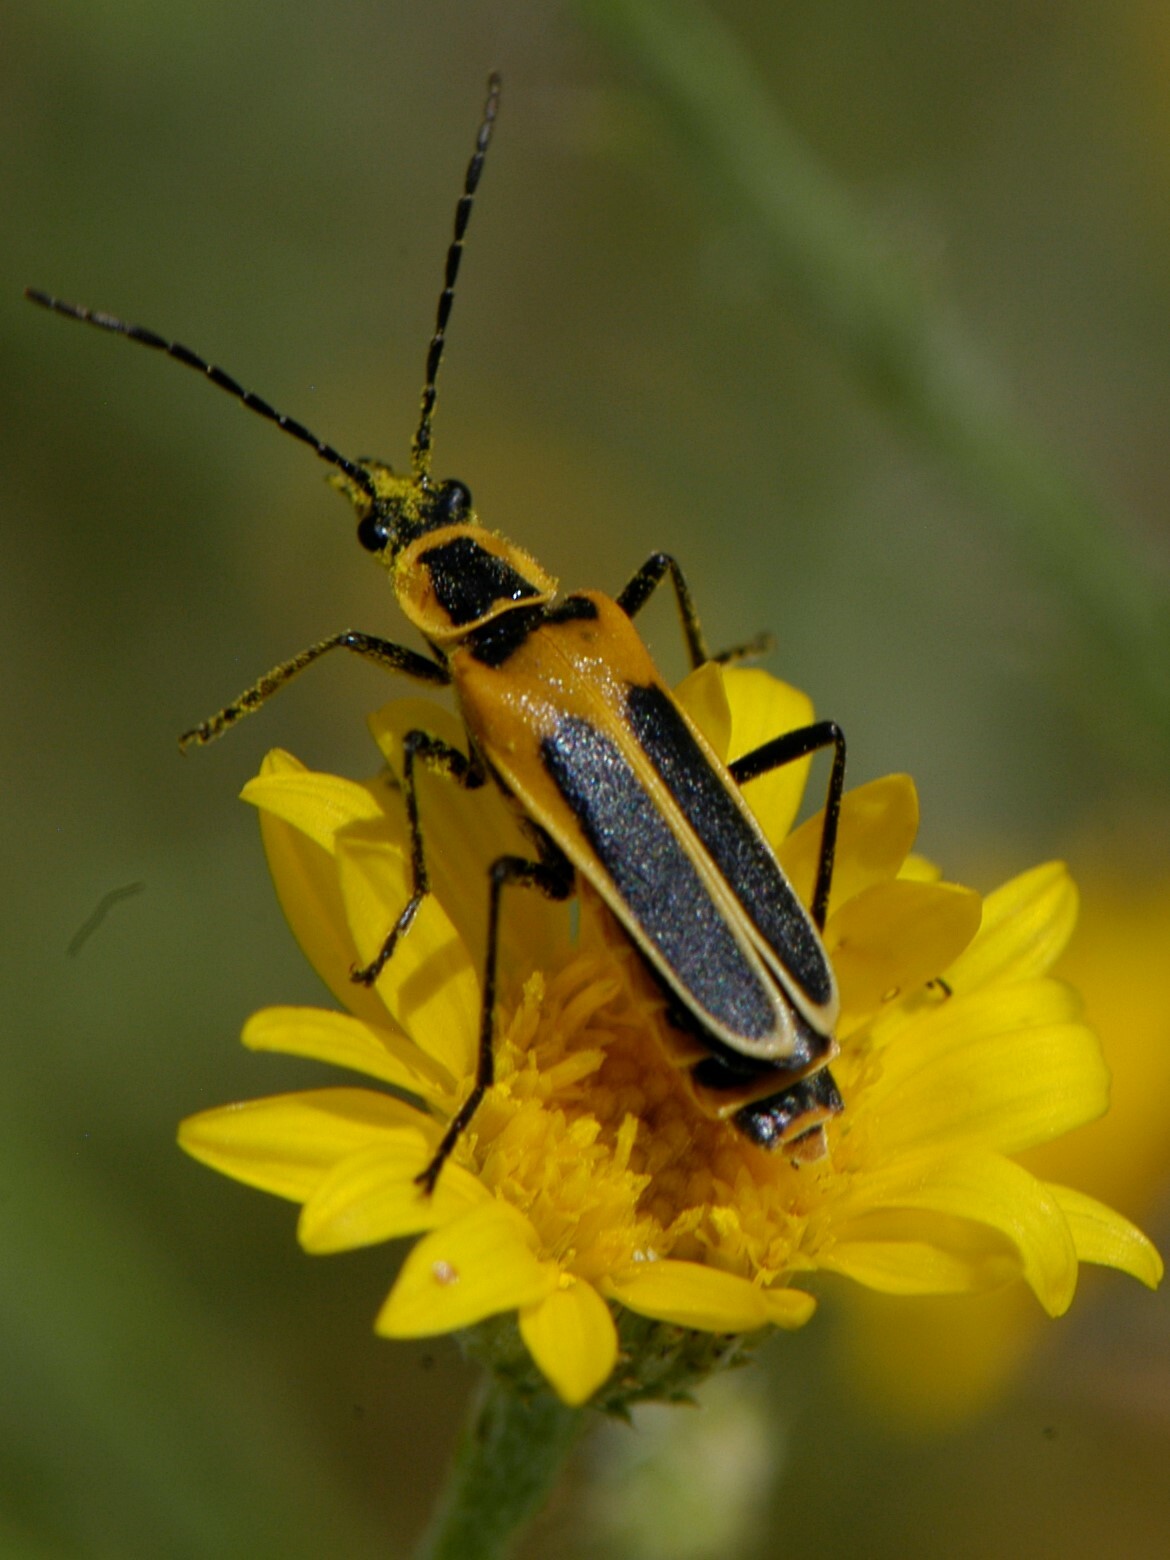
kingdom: Animalia
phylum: Arthropoda
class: Insecta
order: Coleoptera
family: Cantharidae
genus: Chauliognathus
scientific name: Chauliognathus lewisi
